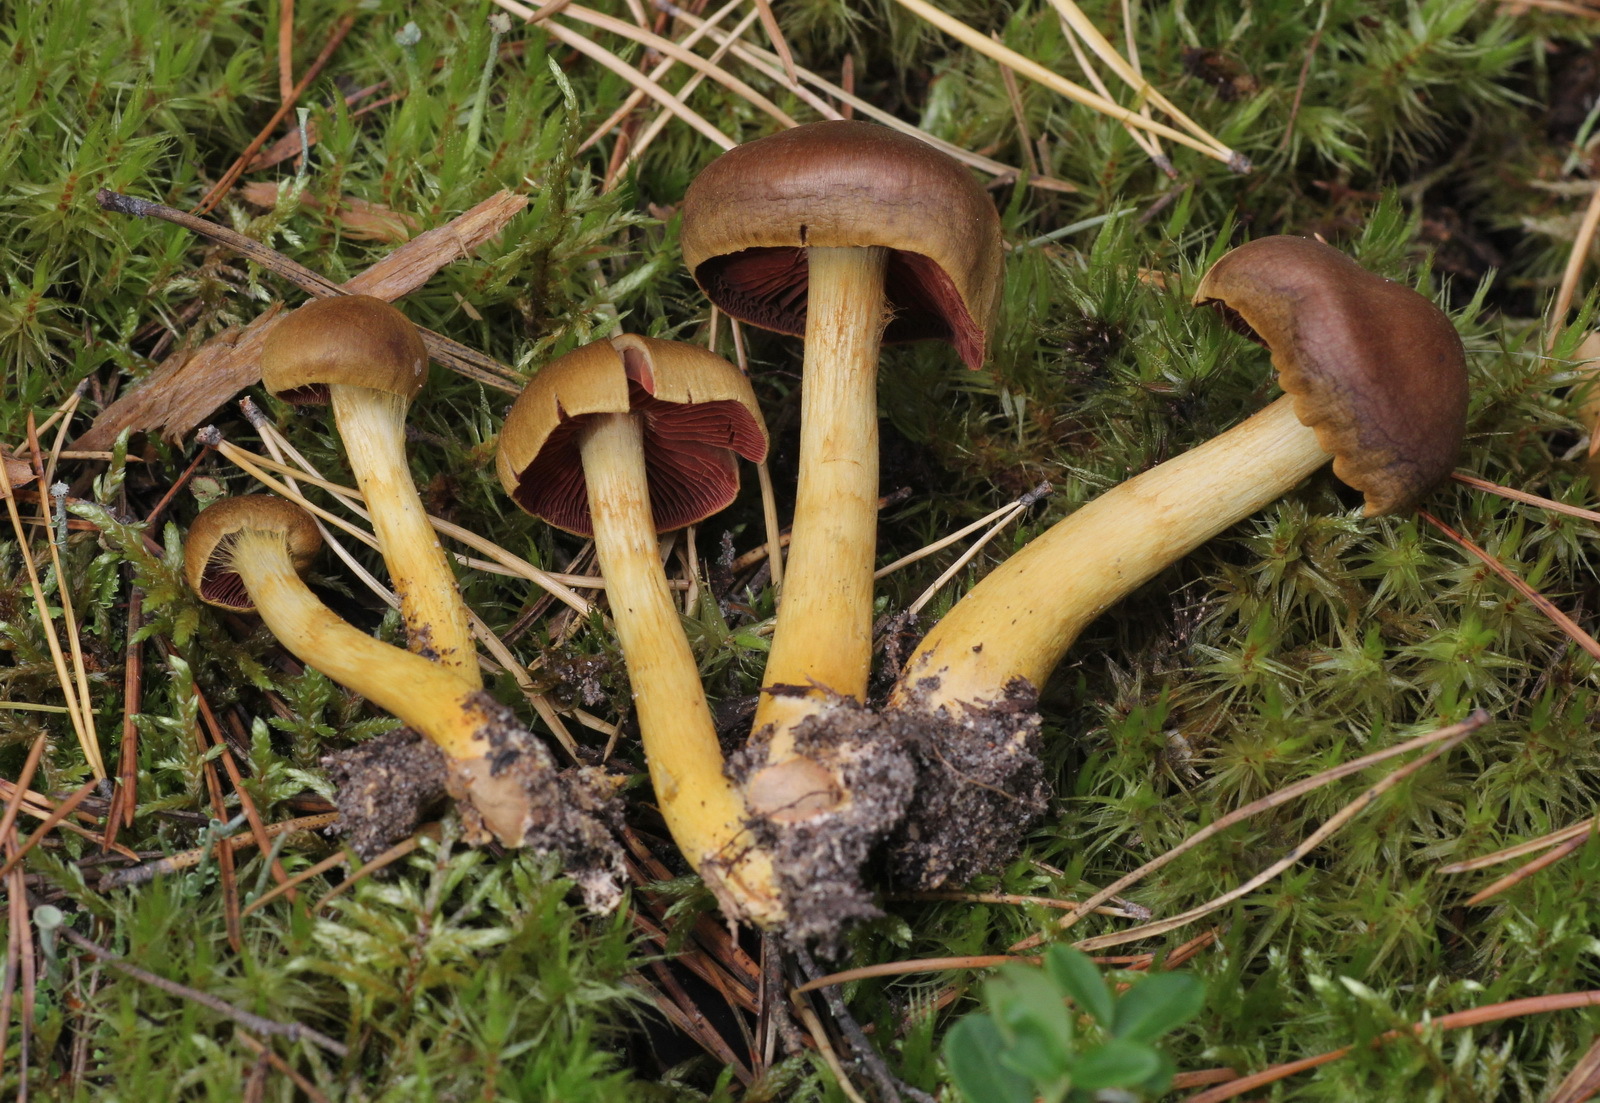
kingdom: Fungi
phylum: Basidiomycota
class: Agaricomycetes
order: Agaricales
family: Cortinariaceae
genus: Cortinarius
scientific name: Cortinarius semisanguineus
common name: Surprise webcap
